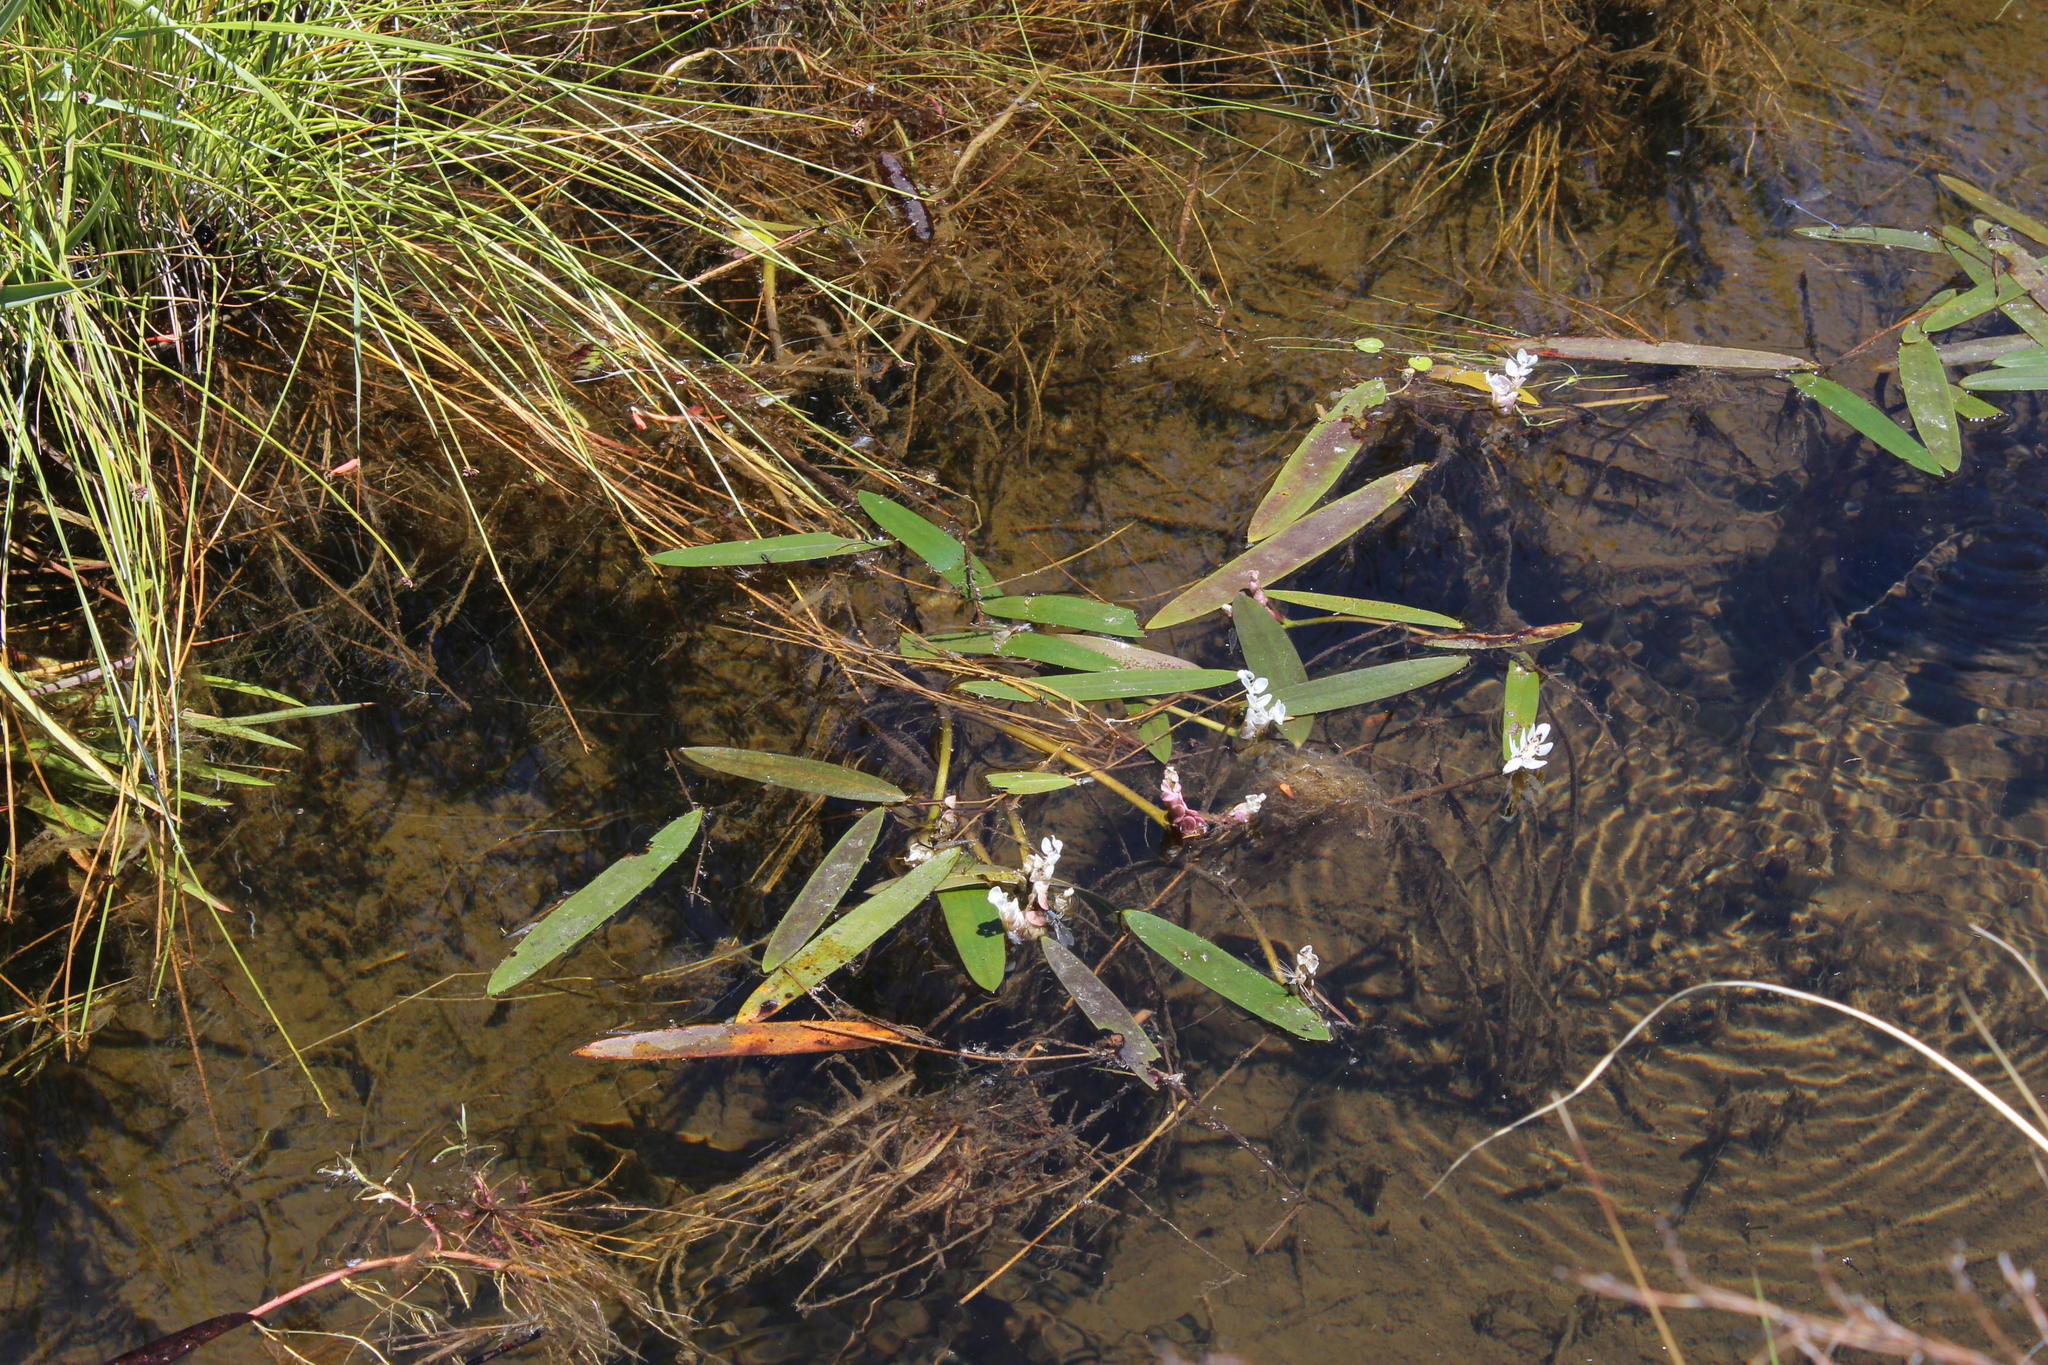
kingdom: Plantae
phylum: Tracheophyta
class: Liliopsida
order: Alismatales
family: Aponogetonaceae
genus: Aponogeton
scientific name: Aponogeton distachyos
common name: Cape-pondweed
